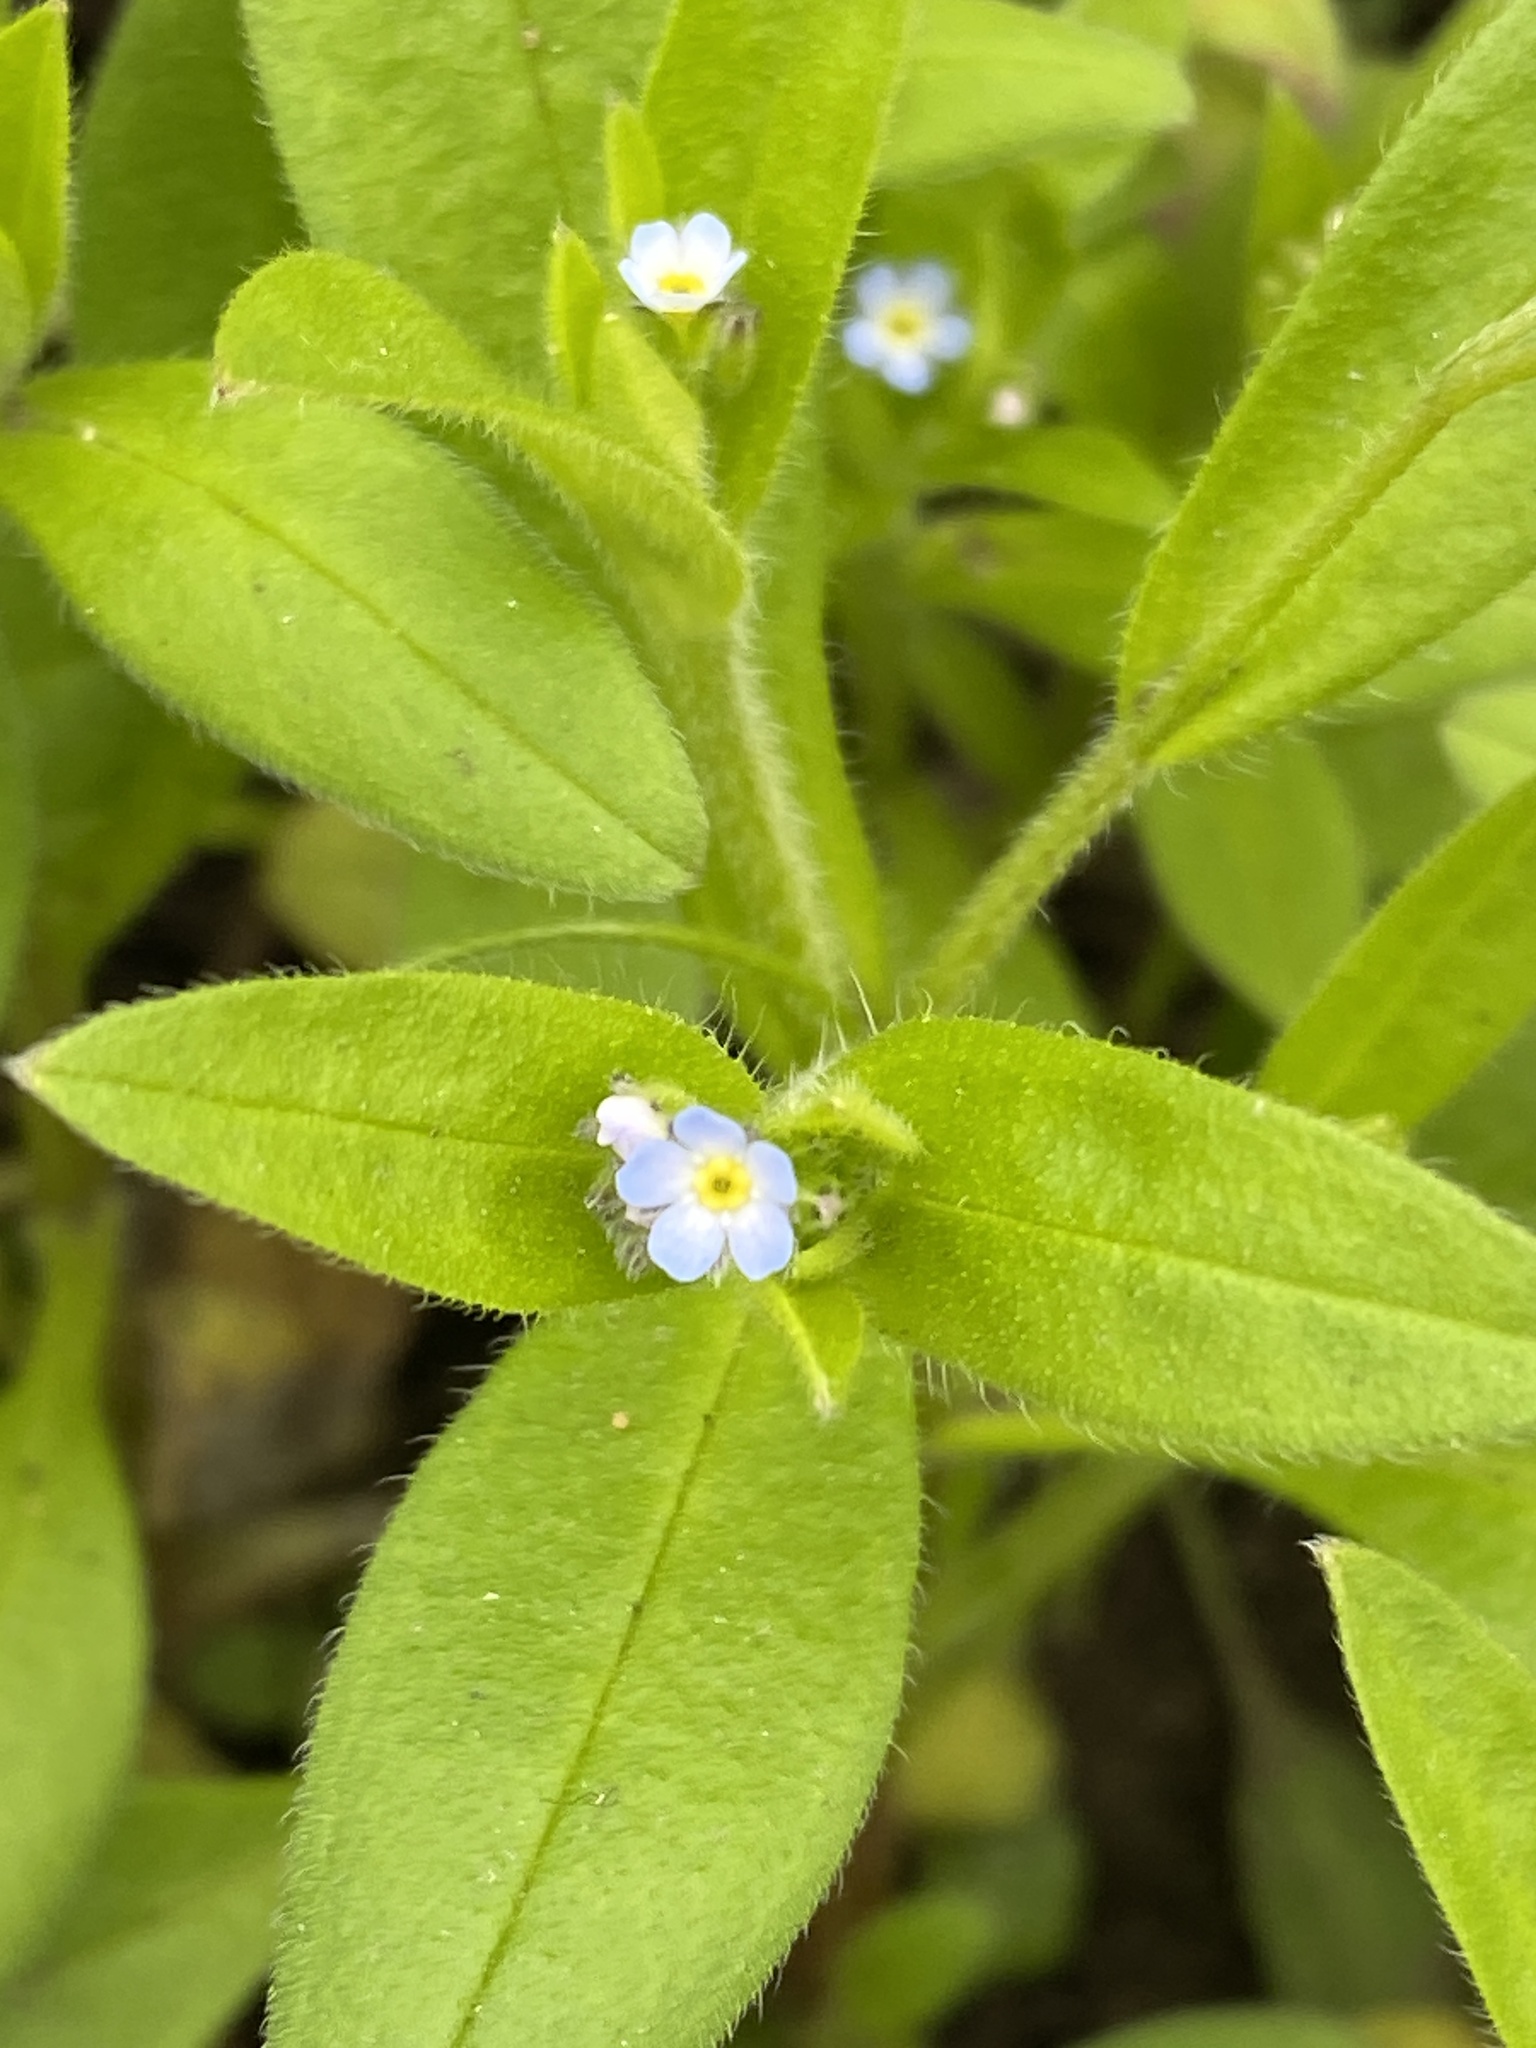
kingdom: Plantae
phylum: Tracheophyta
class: Magnoliopsida
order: Boraginales
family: Boraginaceae
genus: Myosotis
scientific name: Myosotis sparsiflora
